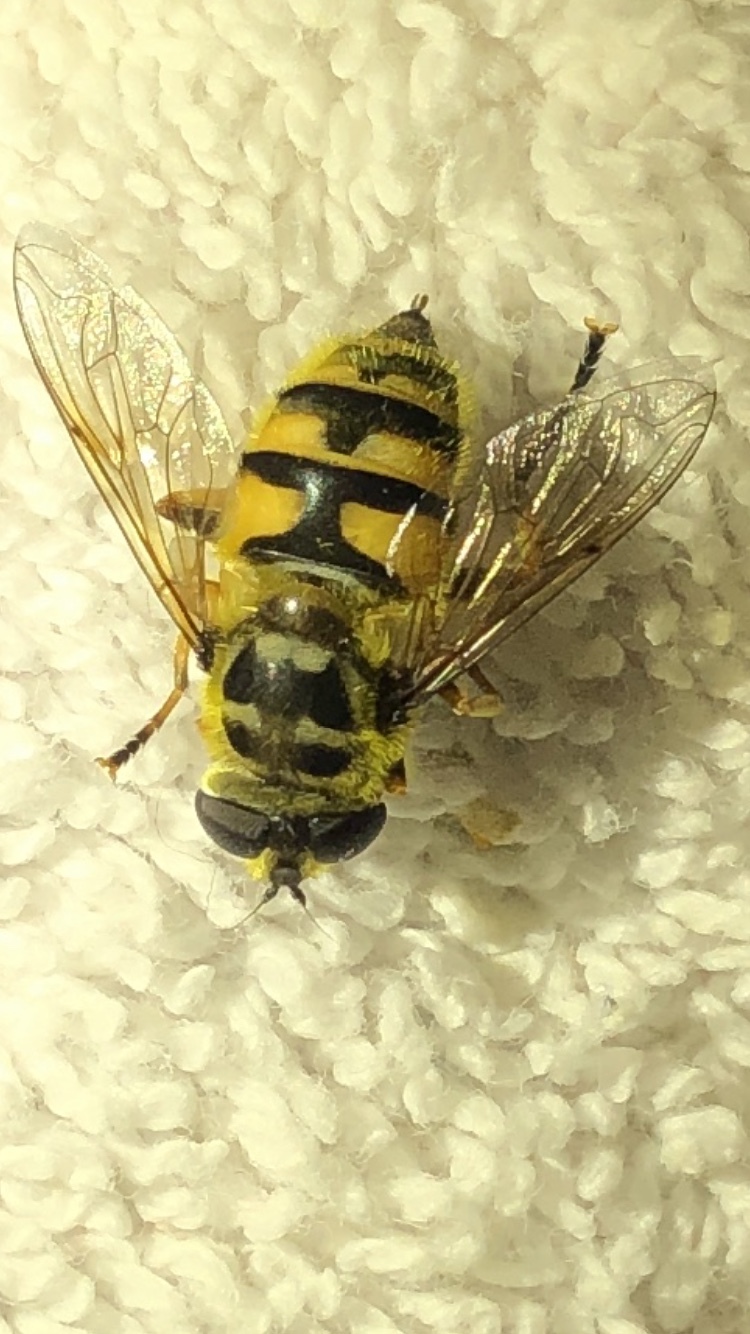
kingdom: Animalia
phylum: Arthropoda
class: Insecta
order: Diptera
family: Syrphidae
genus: Myathropa
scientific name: Myathropa florea
